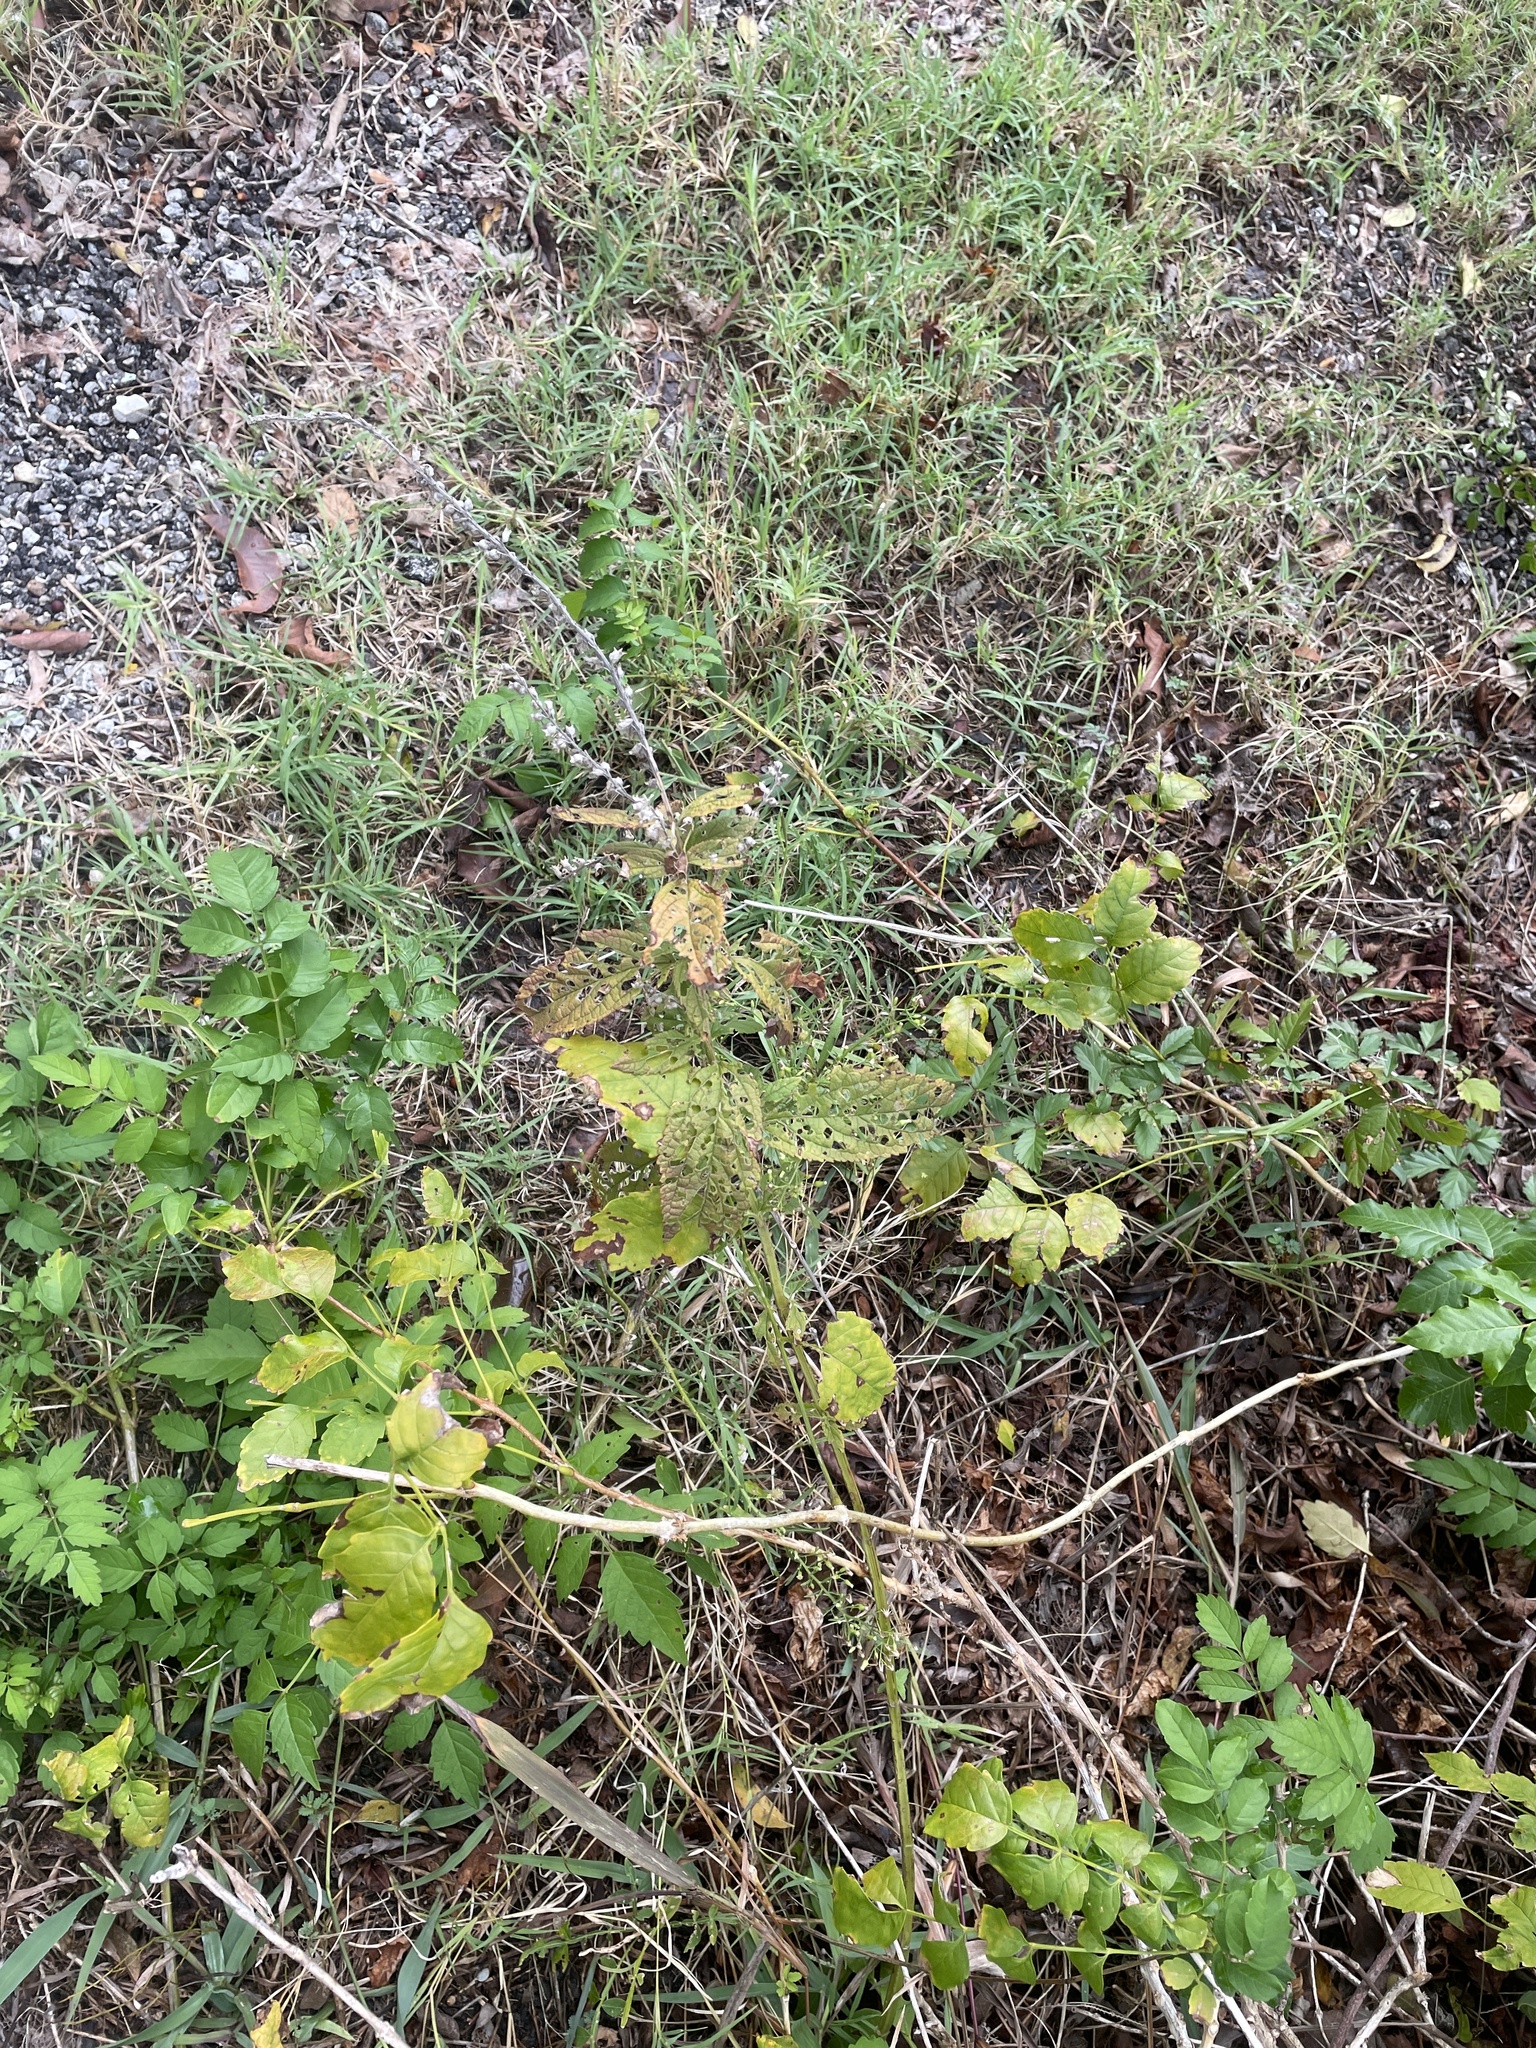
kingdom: Plantae
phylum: Tracheophyta
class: Magnoliopsida
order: Lamiales
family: Lamiaceae
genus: Teucrium
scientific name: Teucrium canadense
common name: American germander
